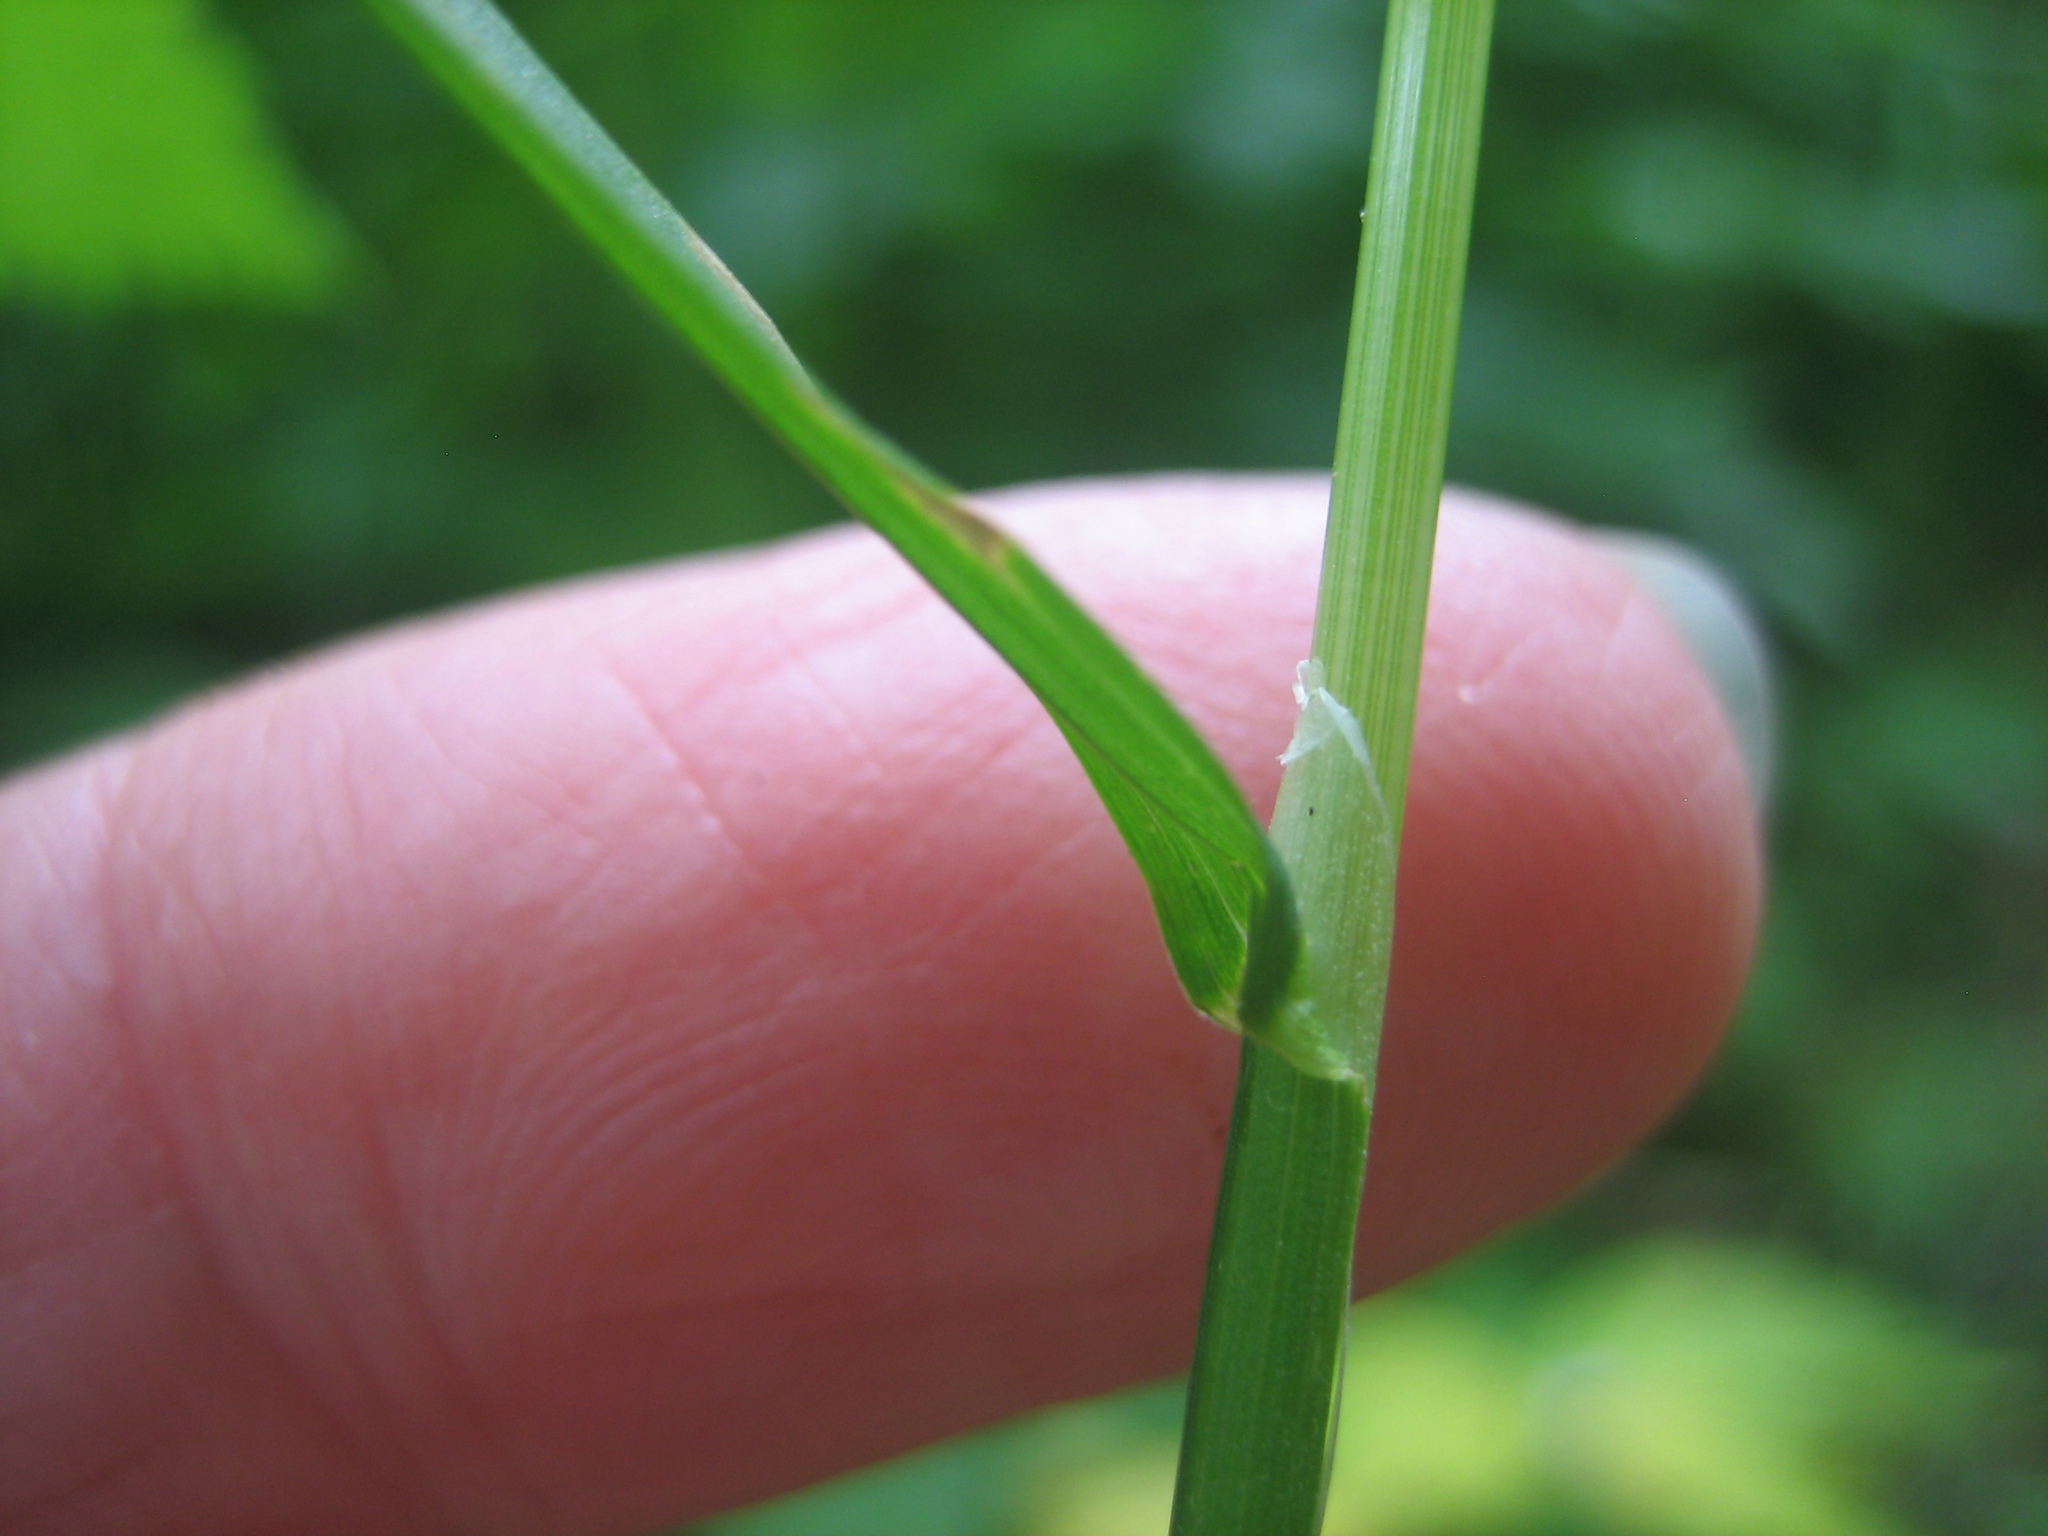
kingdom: Plantae
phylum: Tracheophyta
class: Liliopsida
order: Poales
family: Poaceae
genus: Poa
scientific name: Poa trivialis
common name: Rough bluegrass
